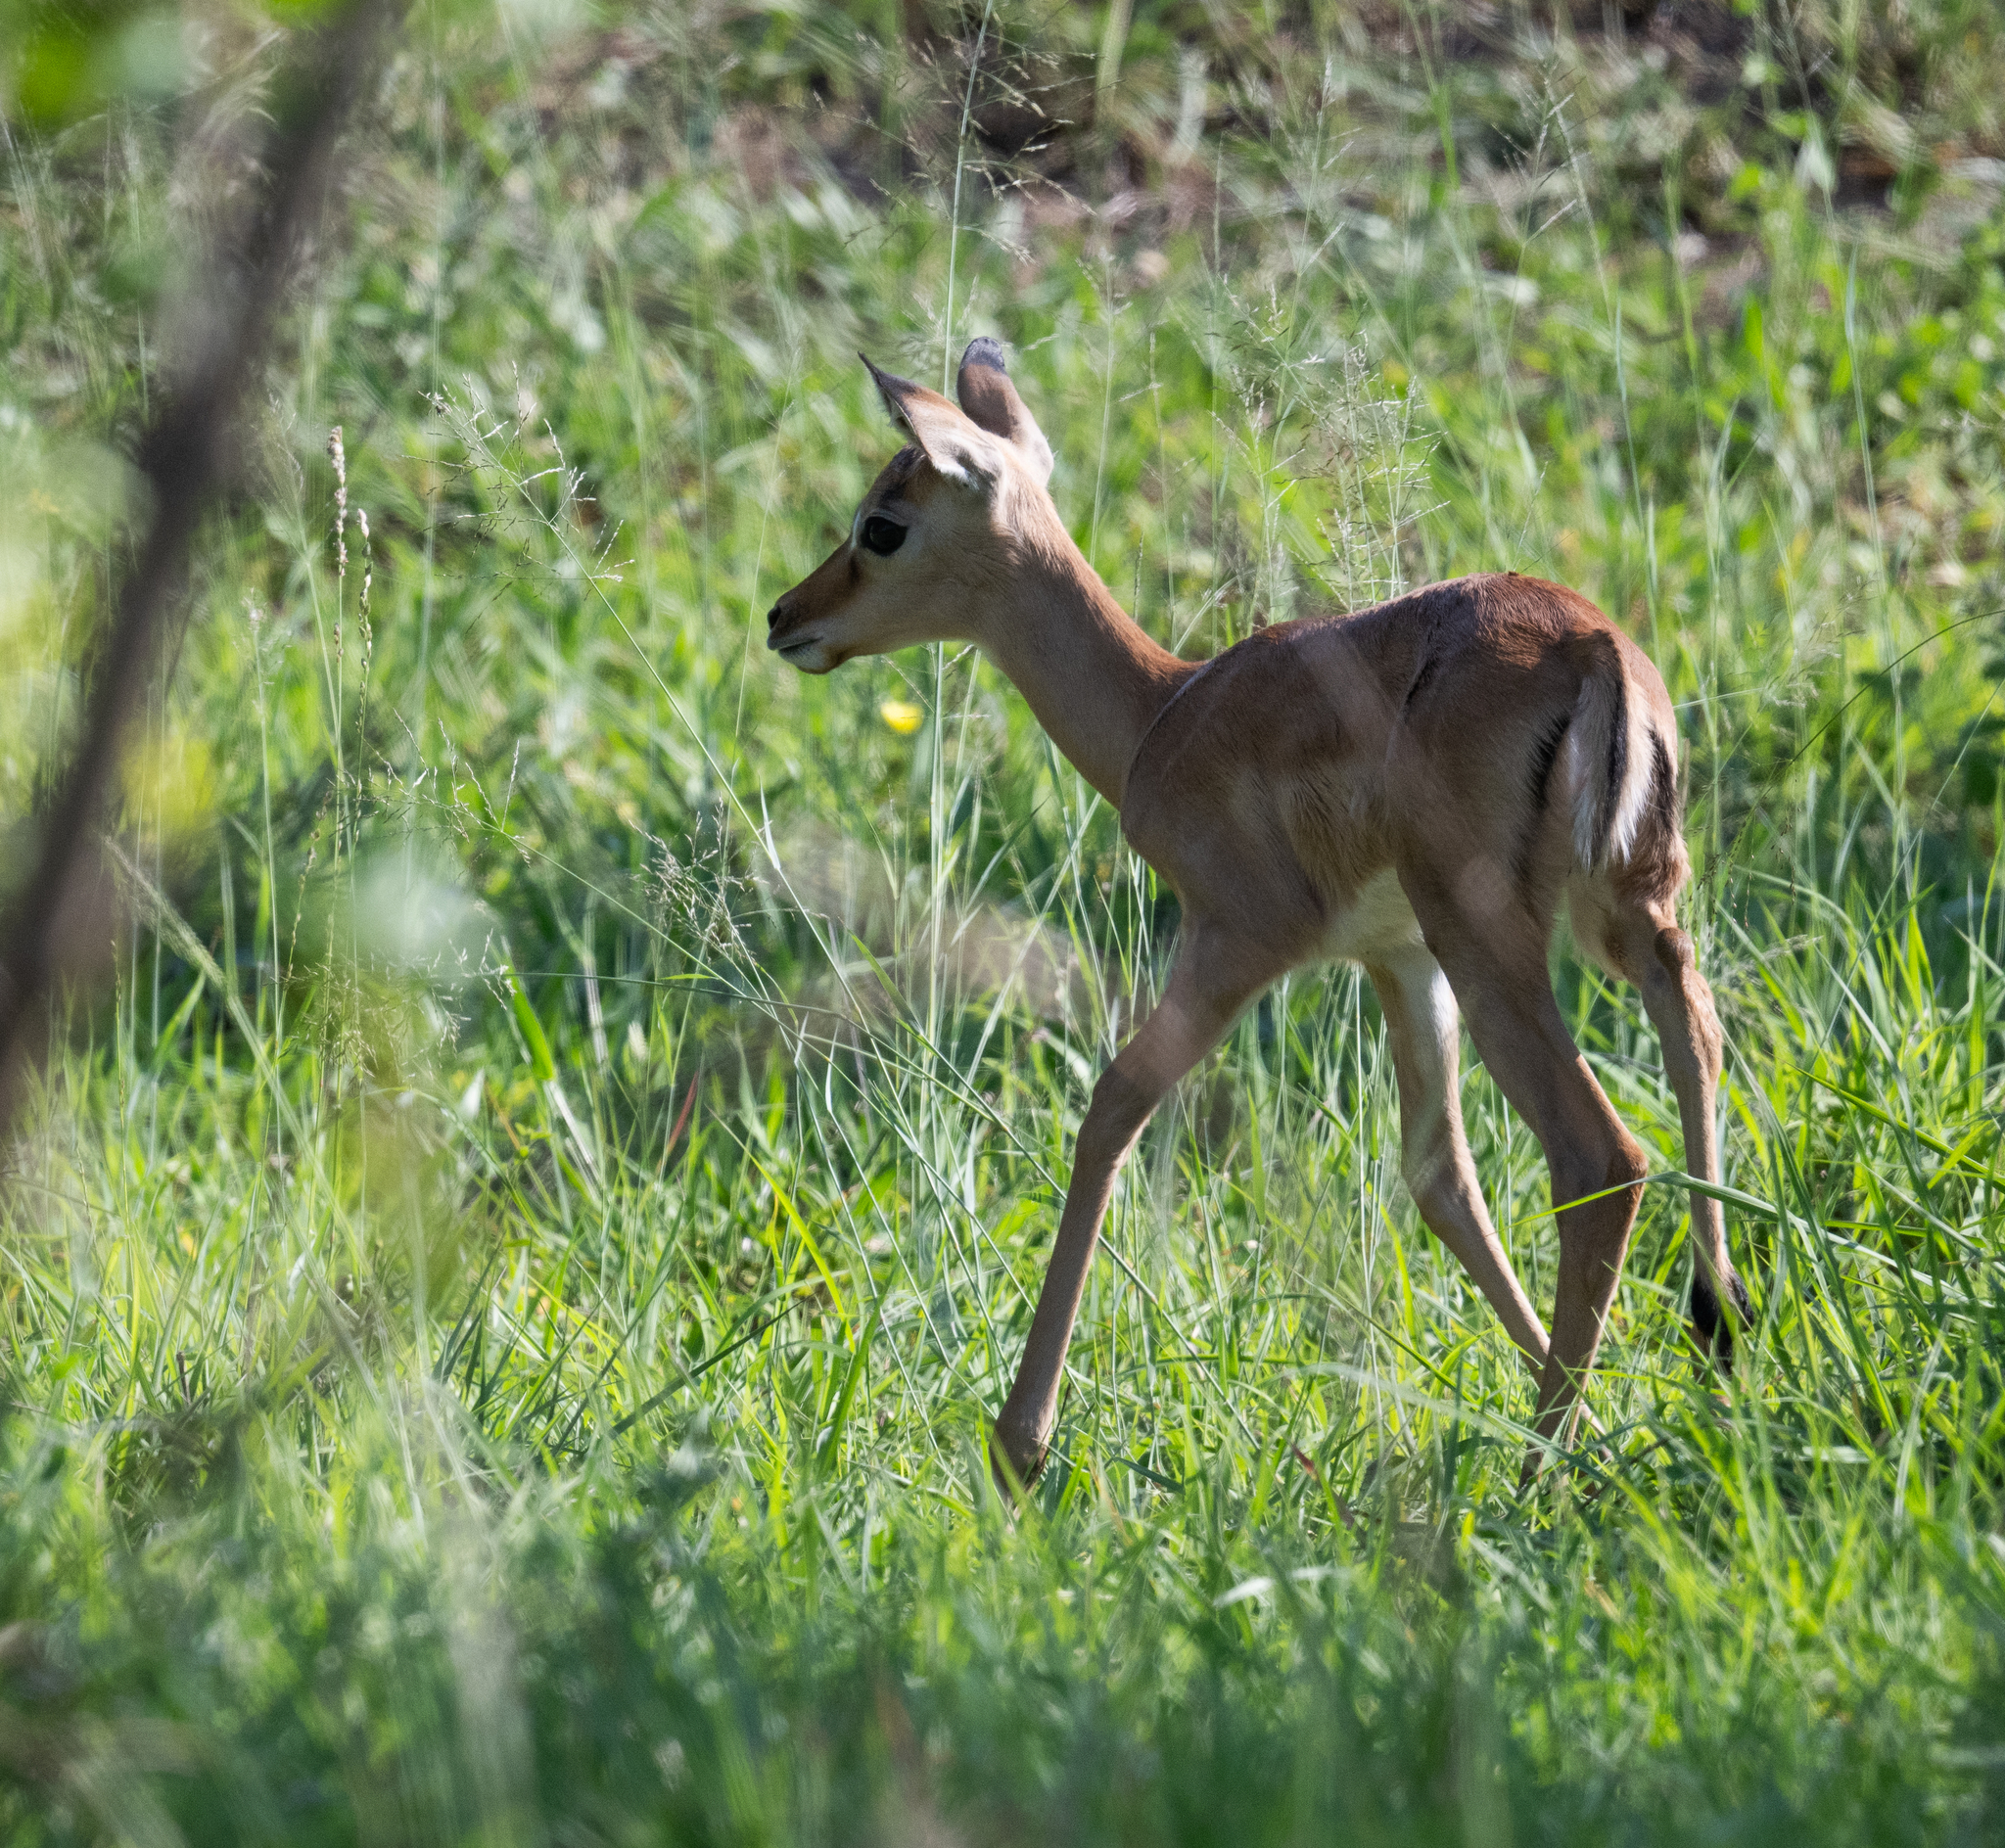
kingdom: Animalia
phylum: Chordata
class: Mammalia
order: Artiodactyla
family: Bovidae
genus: Aepyceros
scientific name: Aepyceros melampus
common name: Impala
